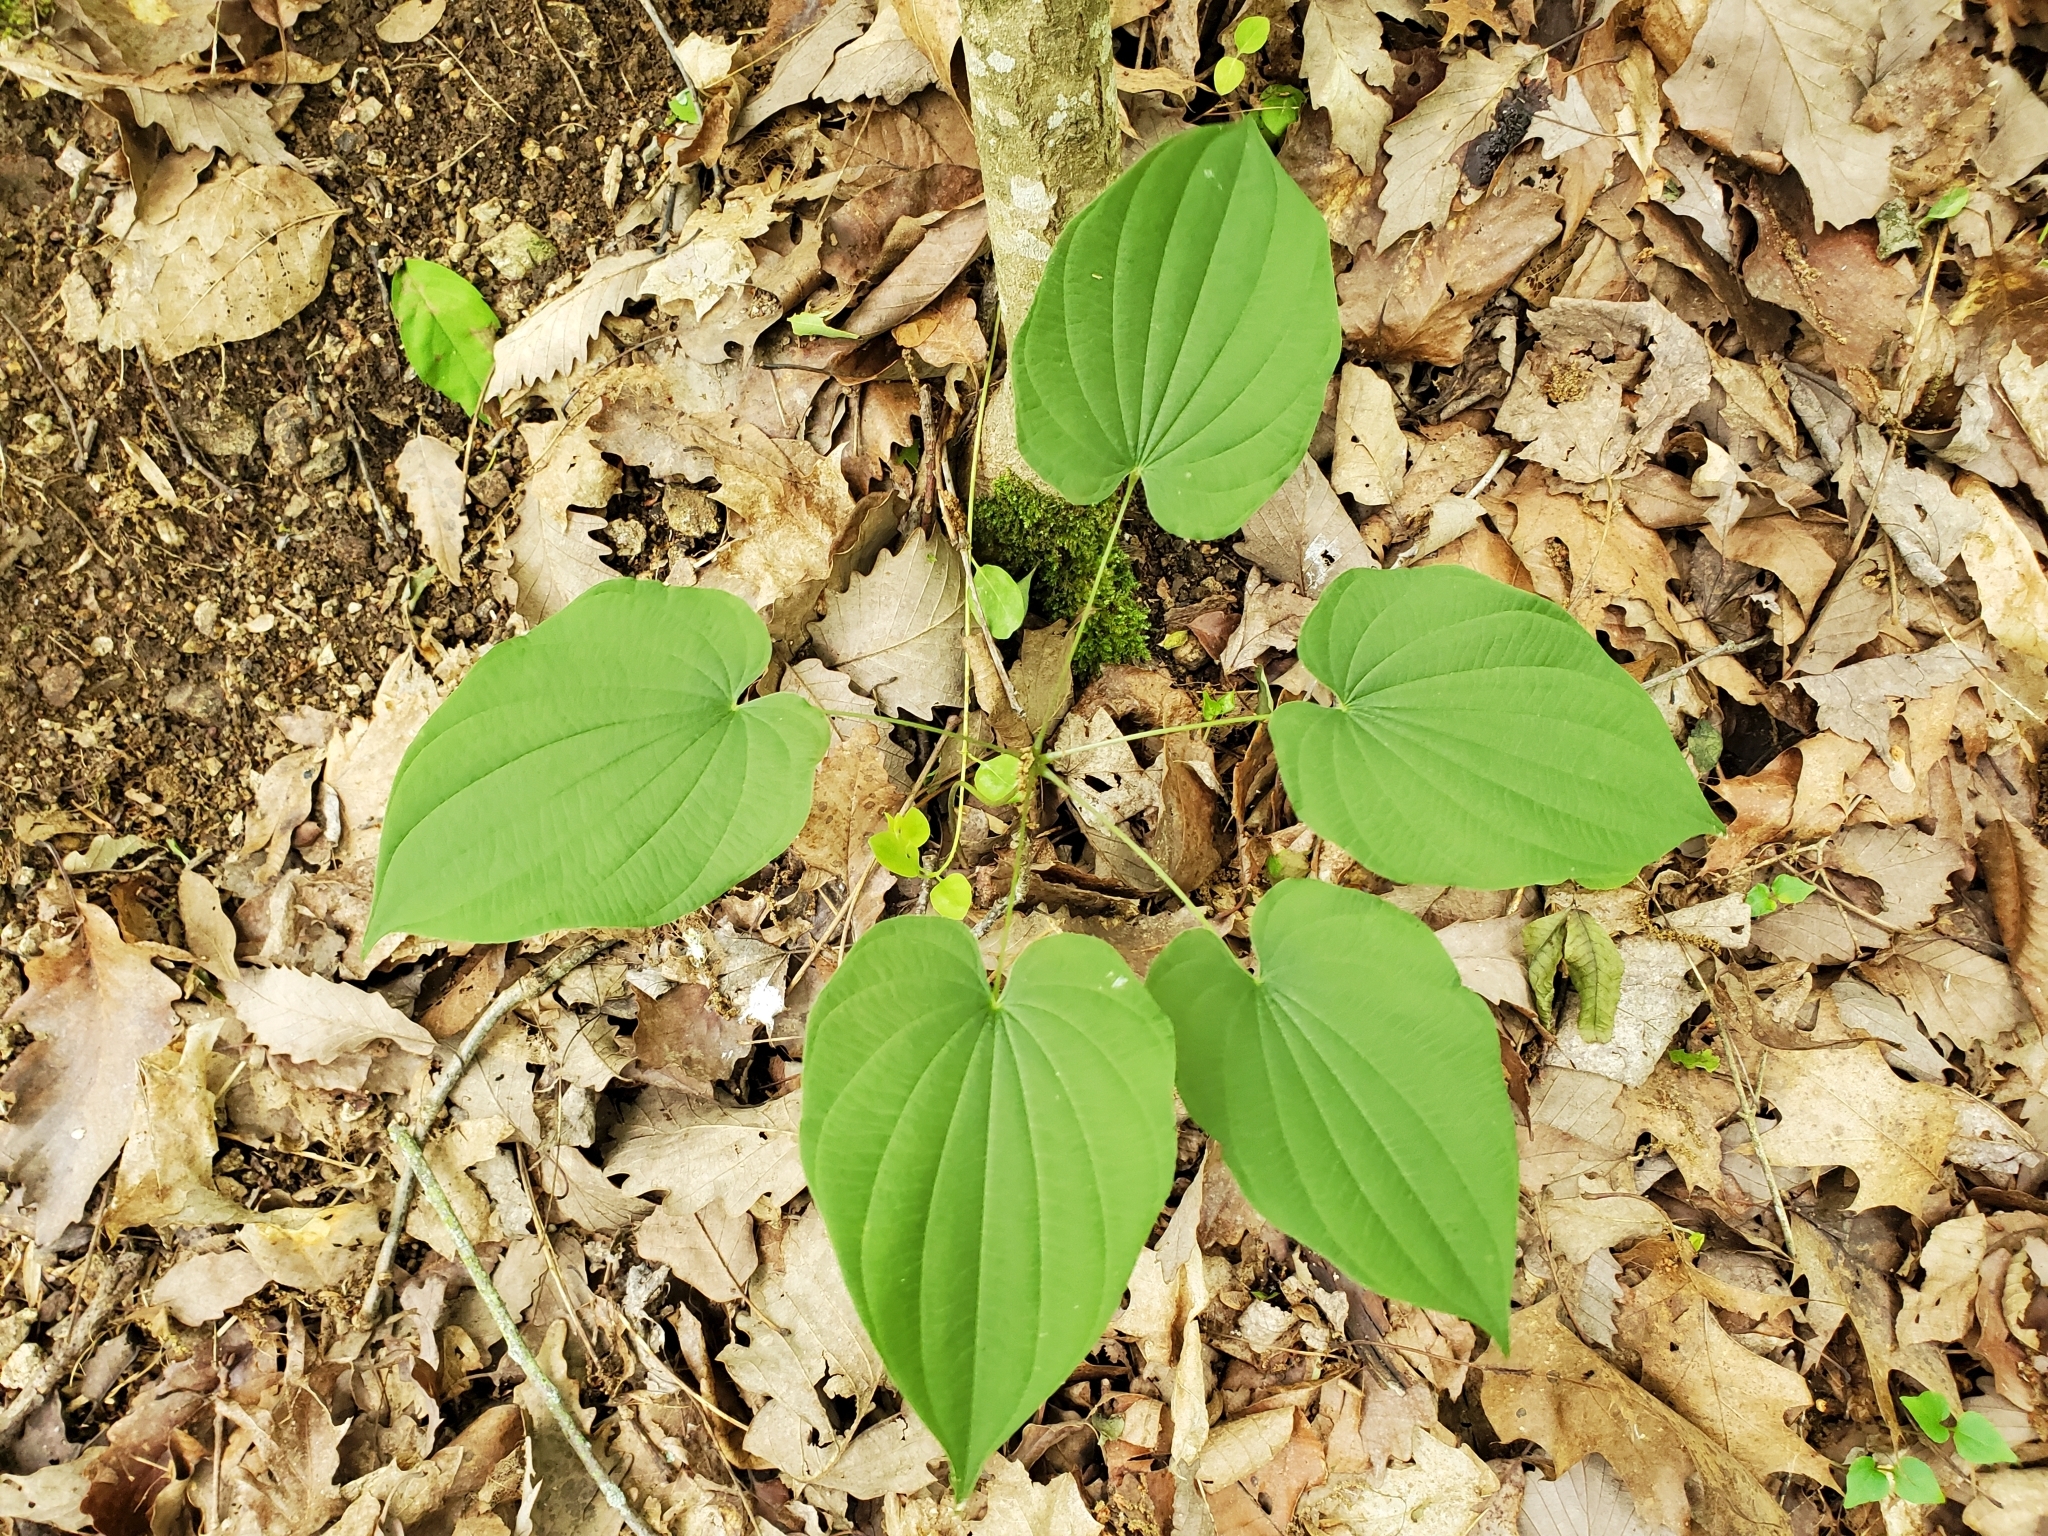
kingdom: Plantae
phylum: Tracheophyta
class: Liliopsida
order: Dioscoreales
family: Dioscoreaceae
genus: Dioscorea
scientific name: Dioscorea villosa
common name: Wild yam
